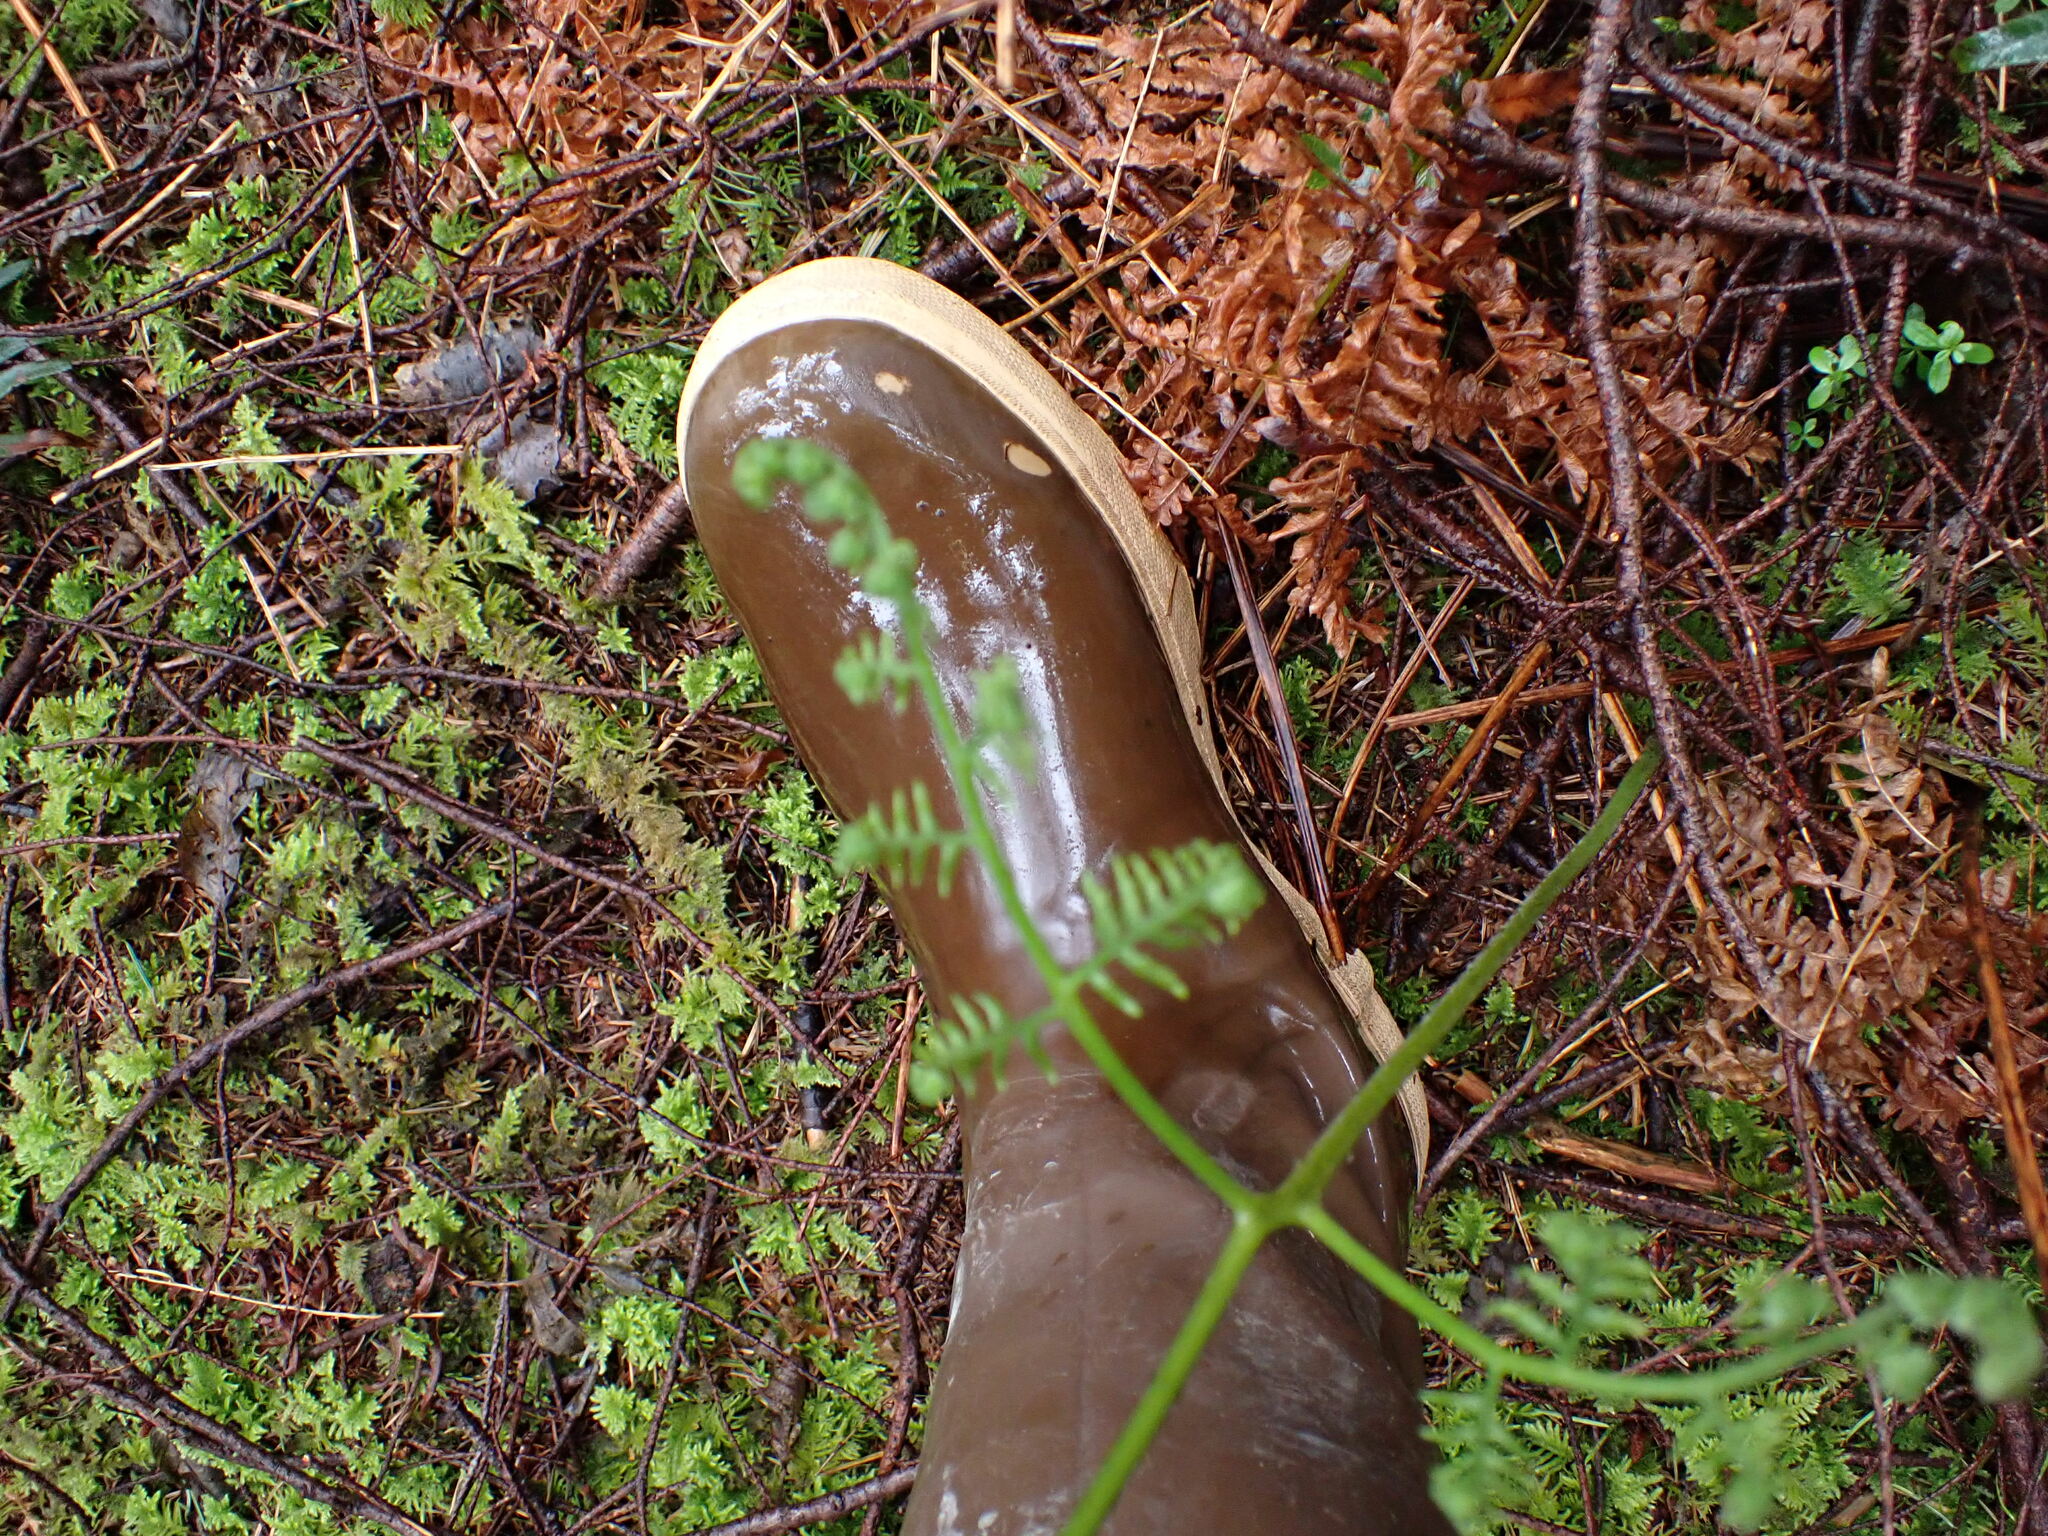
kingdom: Plantae
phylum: Tracheophyta
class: Polypodiopsida
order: Polypodiales
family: Dennstaedtiaceae
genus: Pteridium
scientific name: Pteridium aquilinum
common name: Bracken
